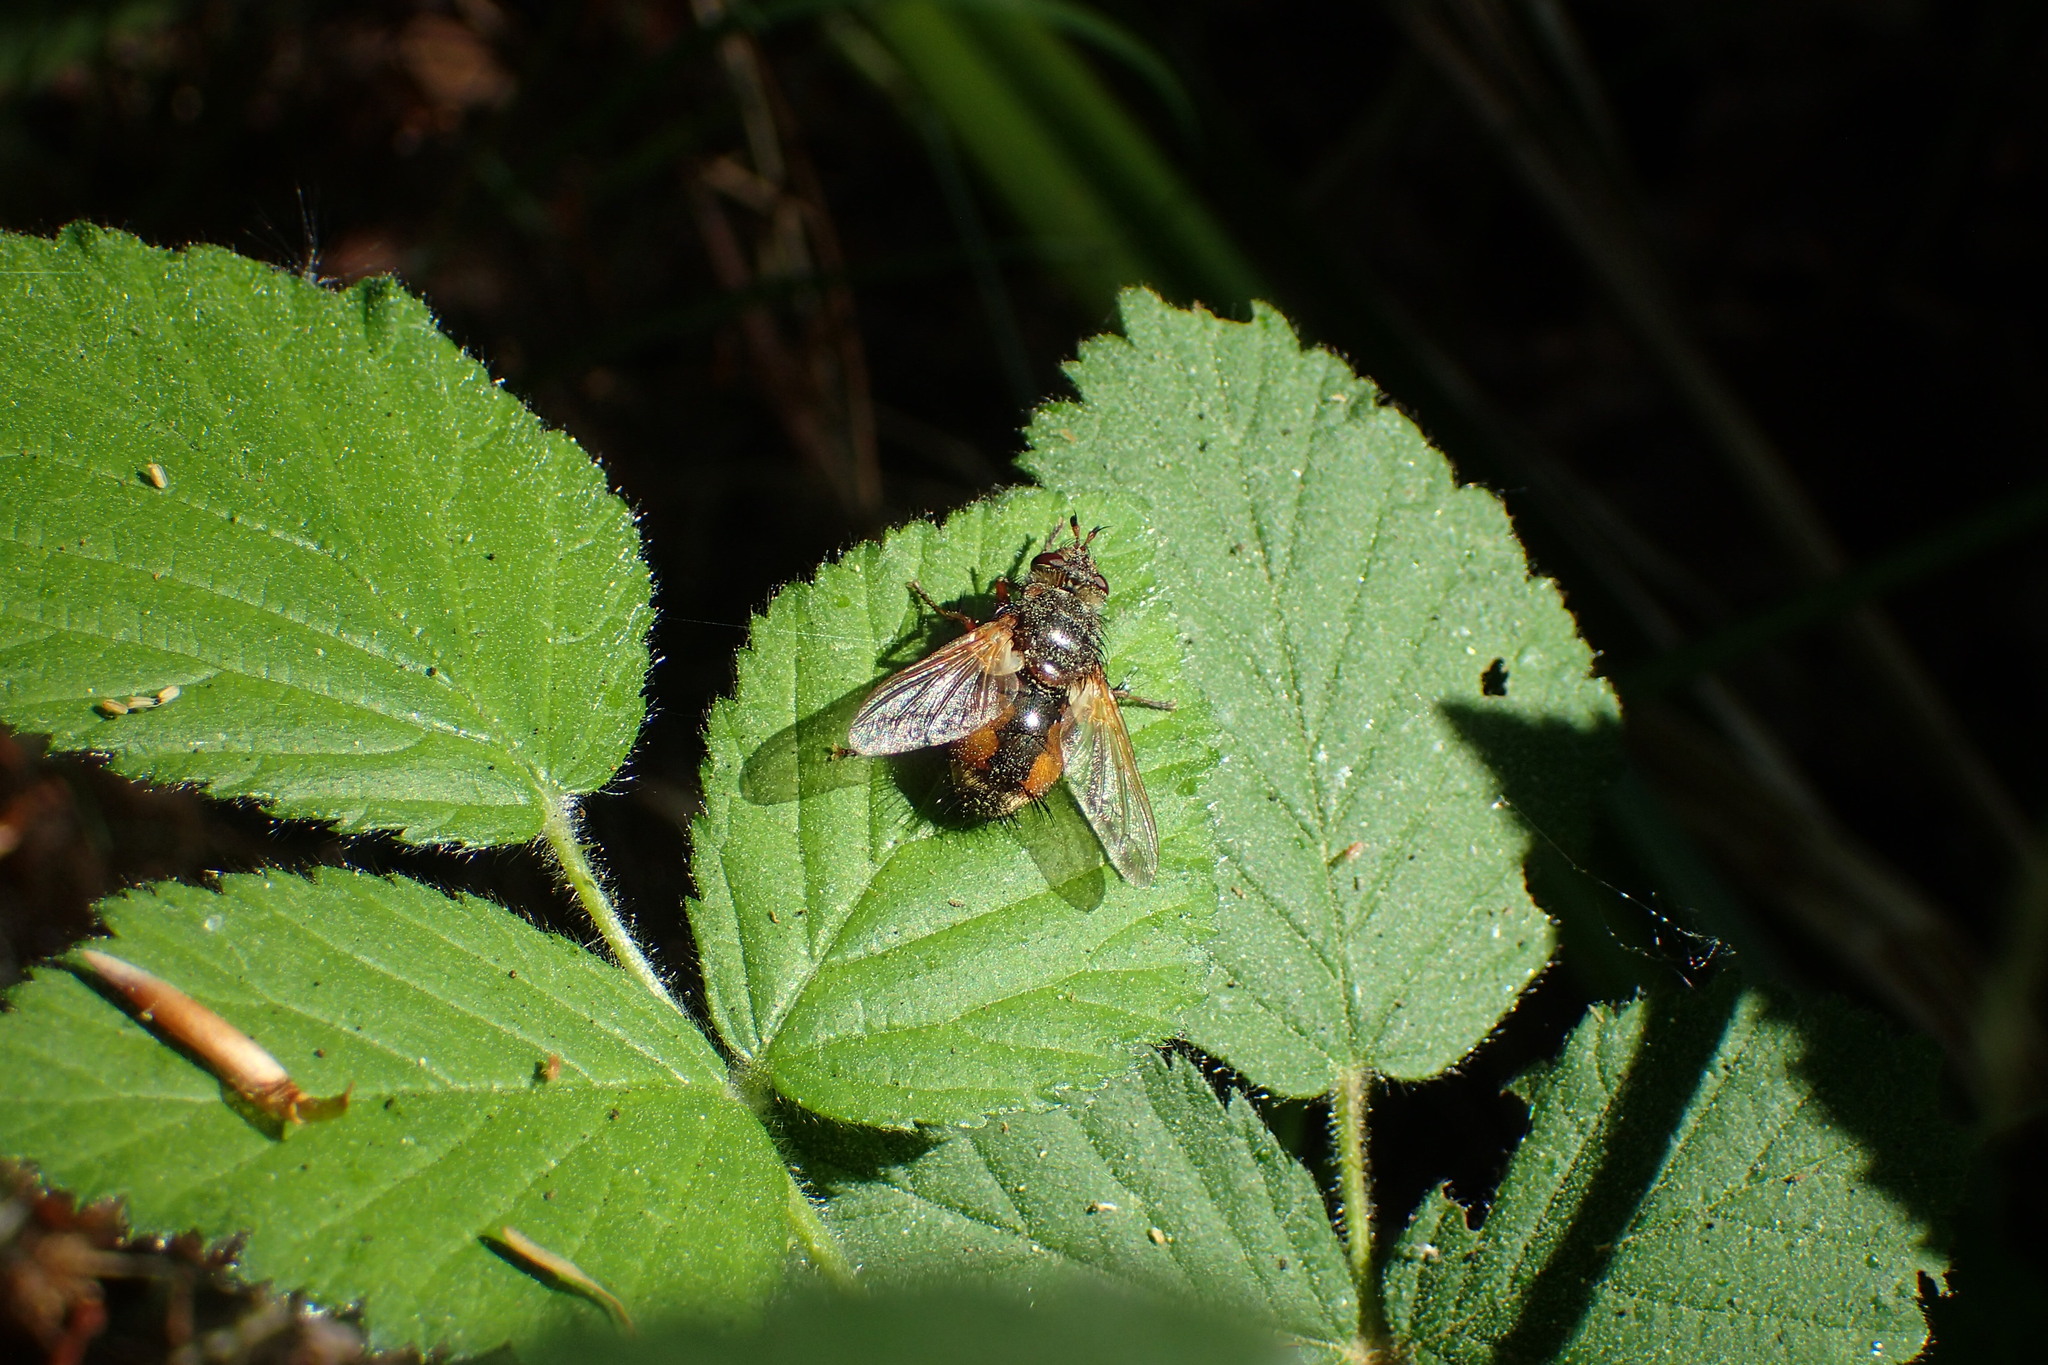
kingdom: Animalia
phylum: Arthropoda
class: Insecta
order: Diptera
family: Tachinidae
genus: Tachina
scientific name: Tachina fera
